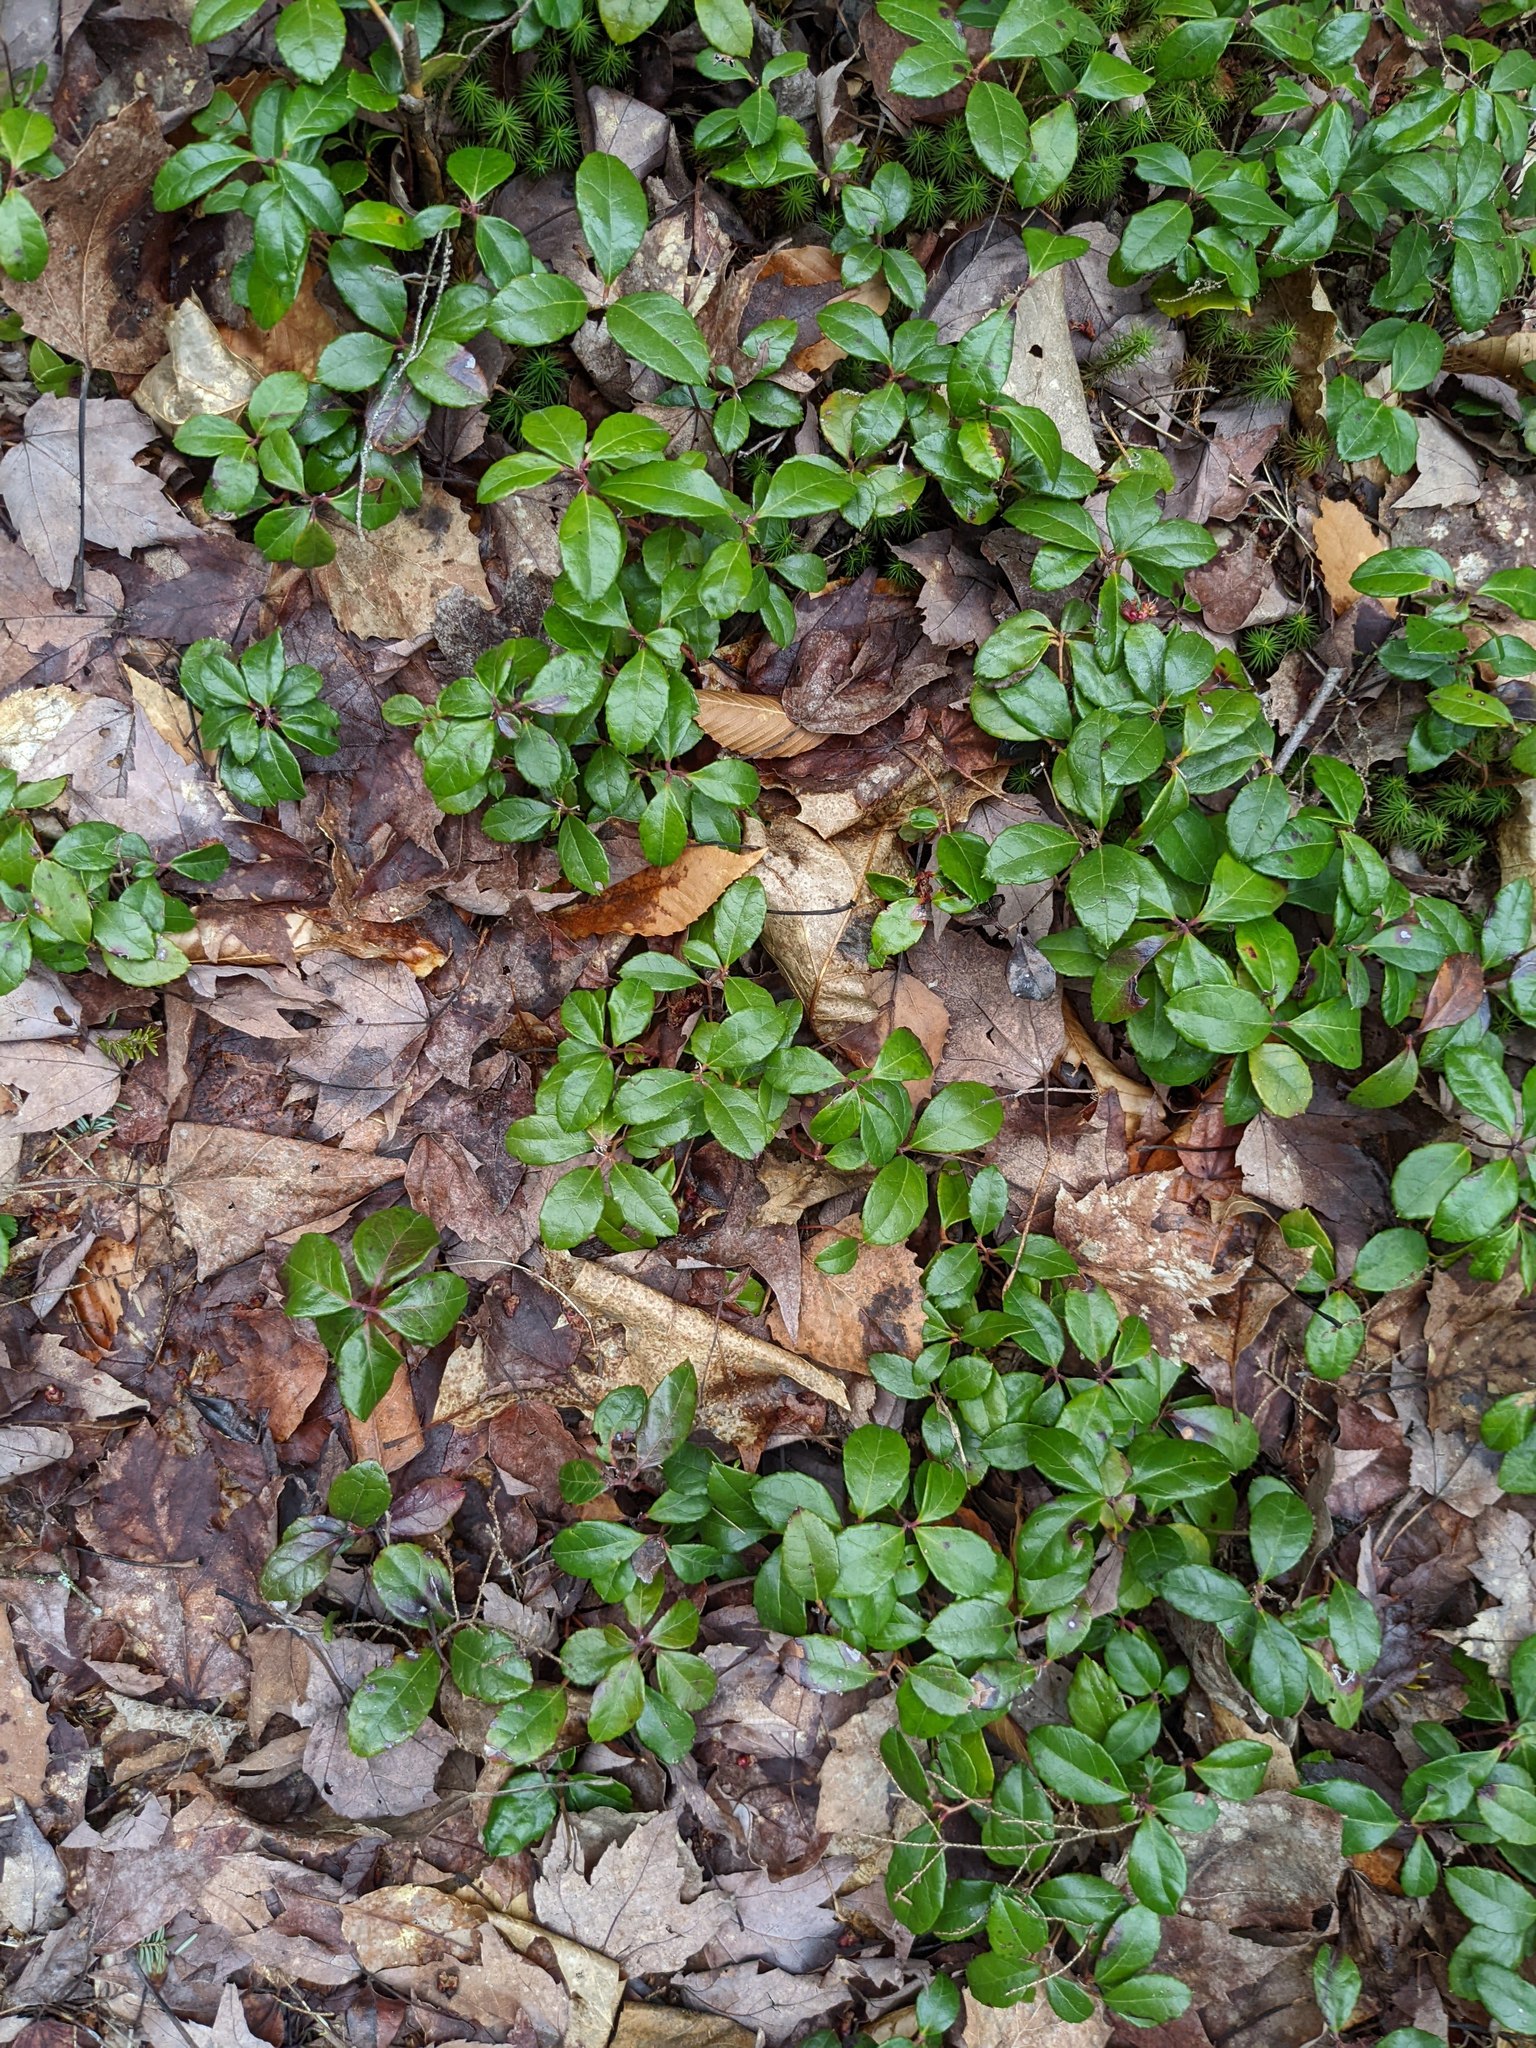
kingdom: Plantae
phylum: Tracheophyta
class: Magnoliopsida
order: Ericales
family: Ericaceae
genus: Gaultheria
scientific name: Gaultheria procumbens
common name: Checkerberry
